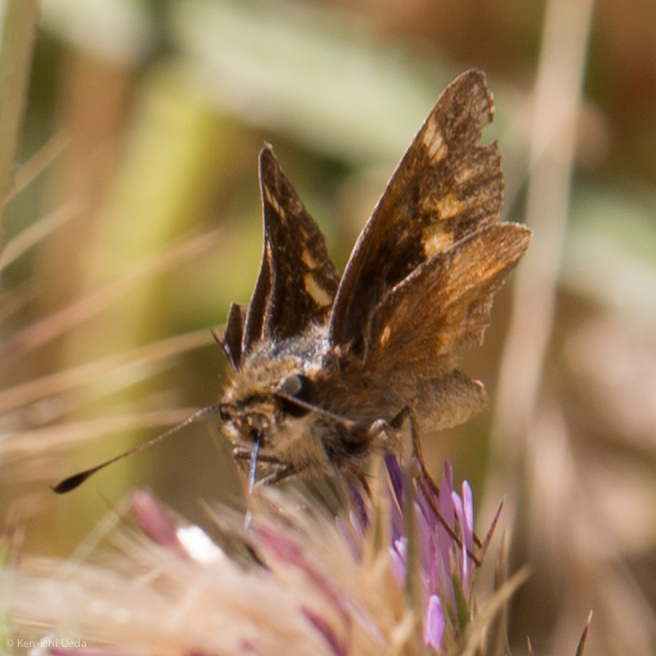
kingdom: Animalia
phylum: Arthropoda
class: Insecta
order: Lepidoptera
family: Hesperiidae
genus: Lon
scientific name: Lon melane
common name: Umber skipper
